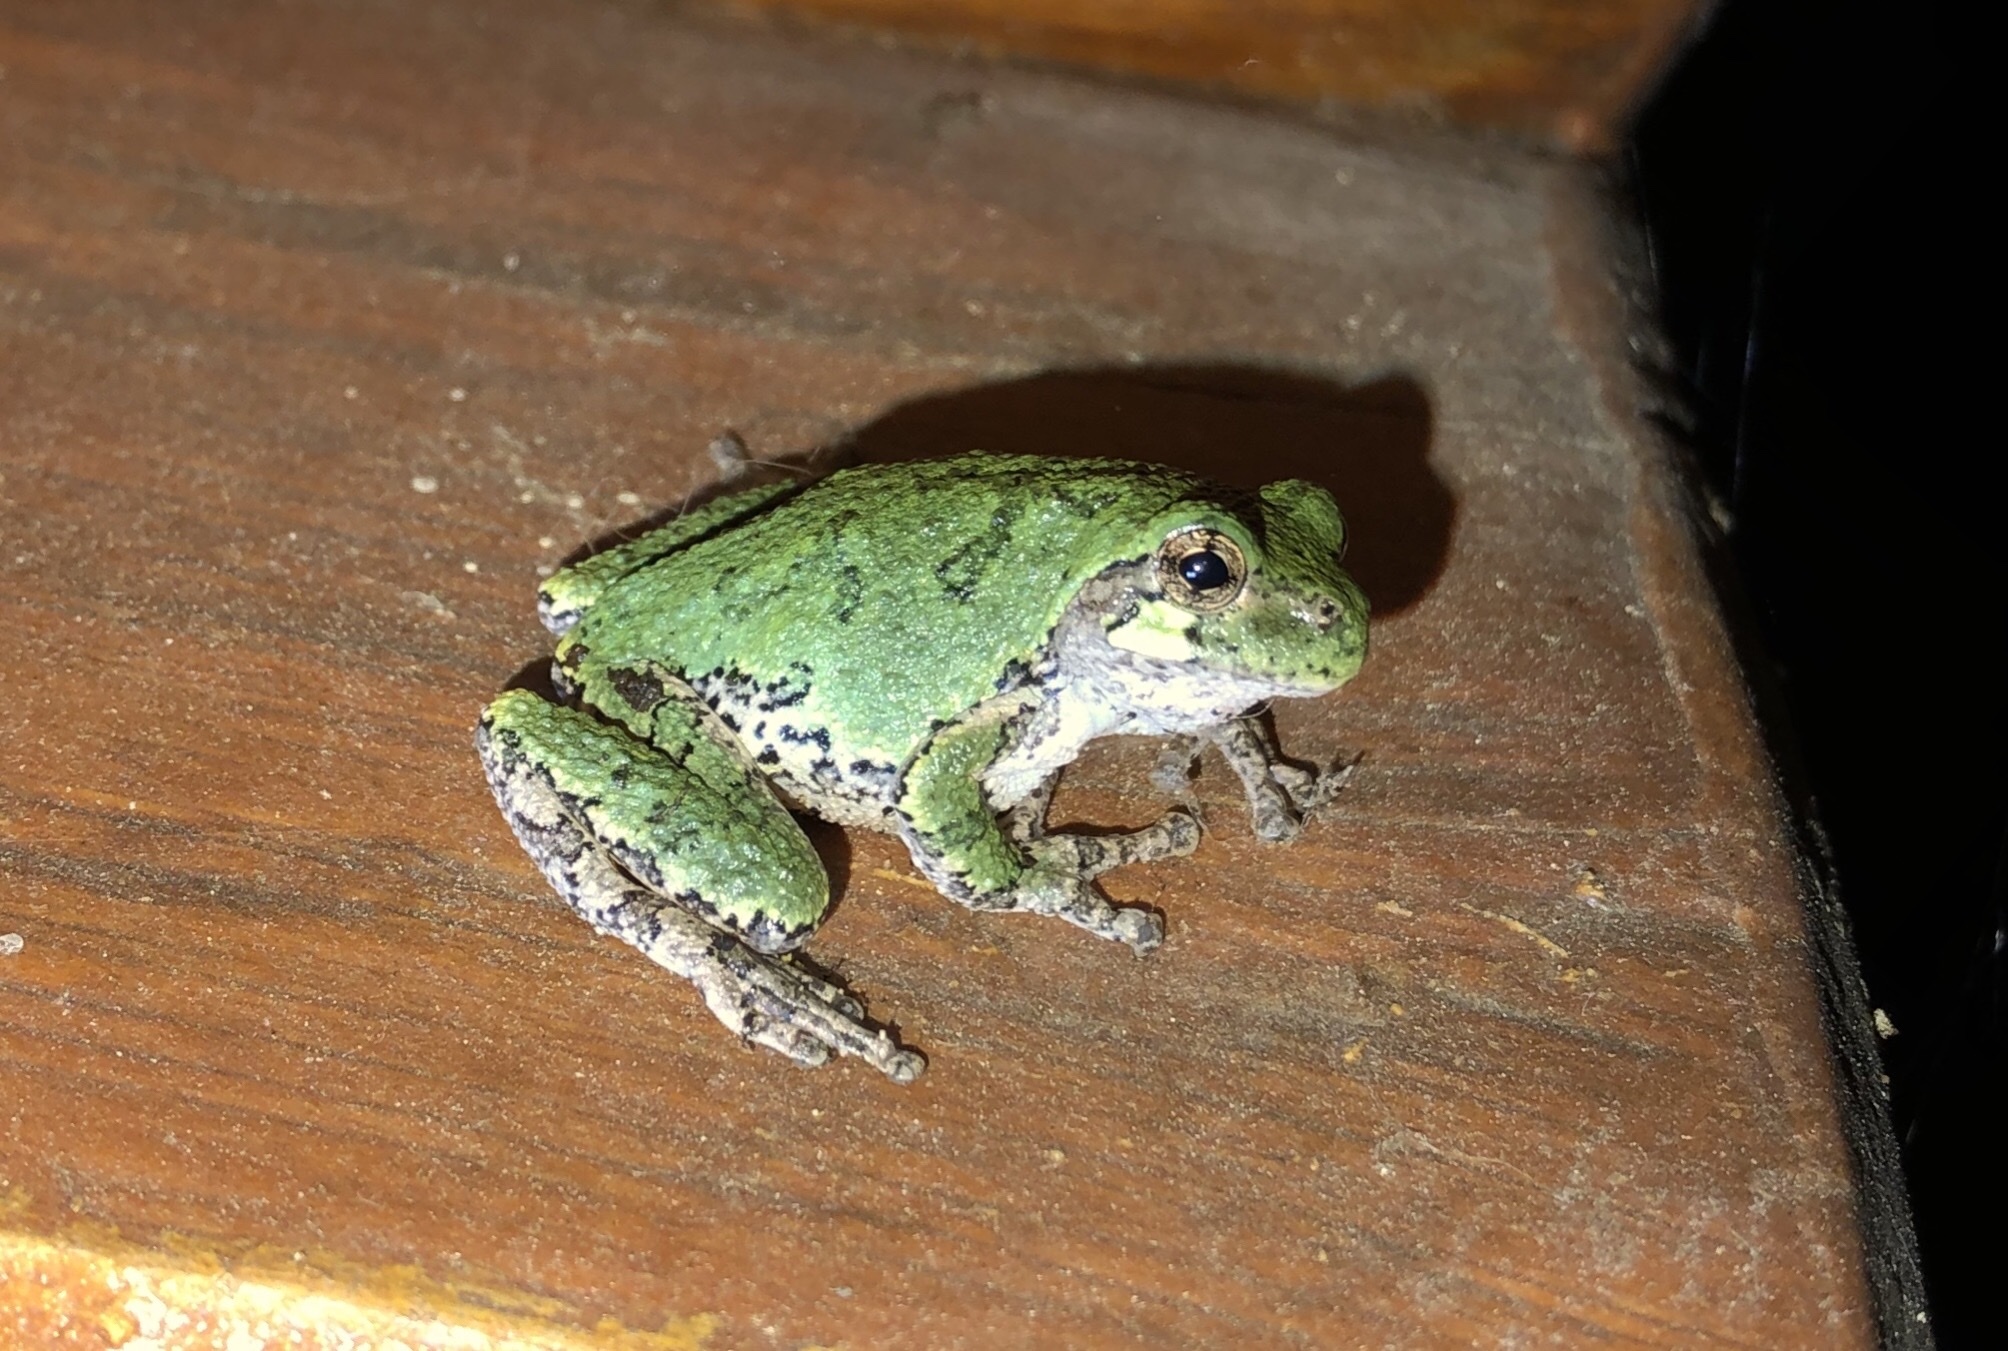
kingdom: Animalia
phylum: Chordata
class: Amphibia
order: Anura
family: Hylidae
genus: Dryophytes
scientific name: Dryophytes versicolor
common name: Gray treefrog
